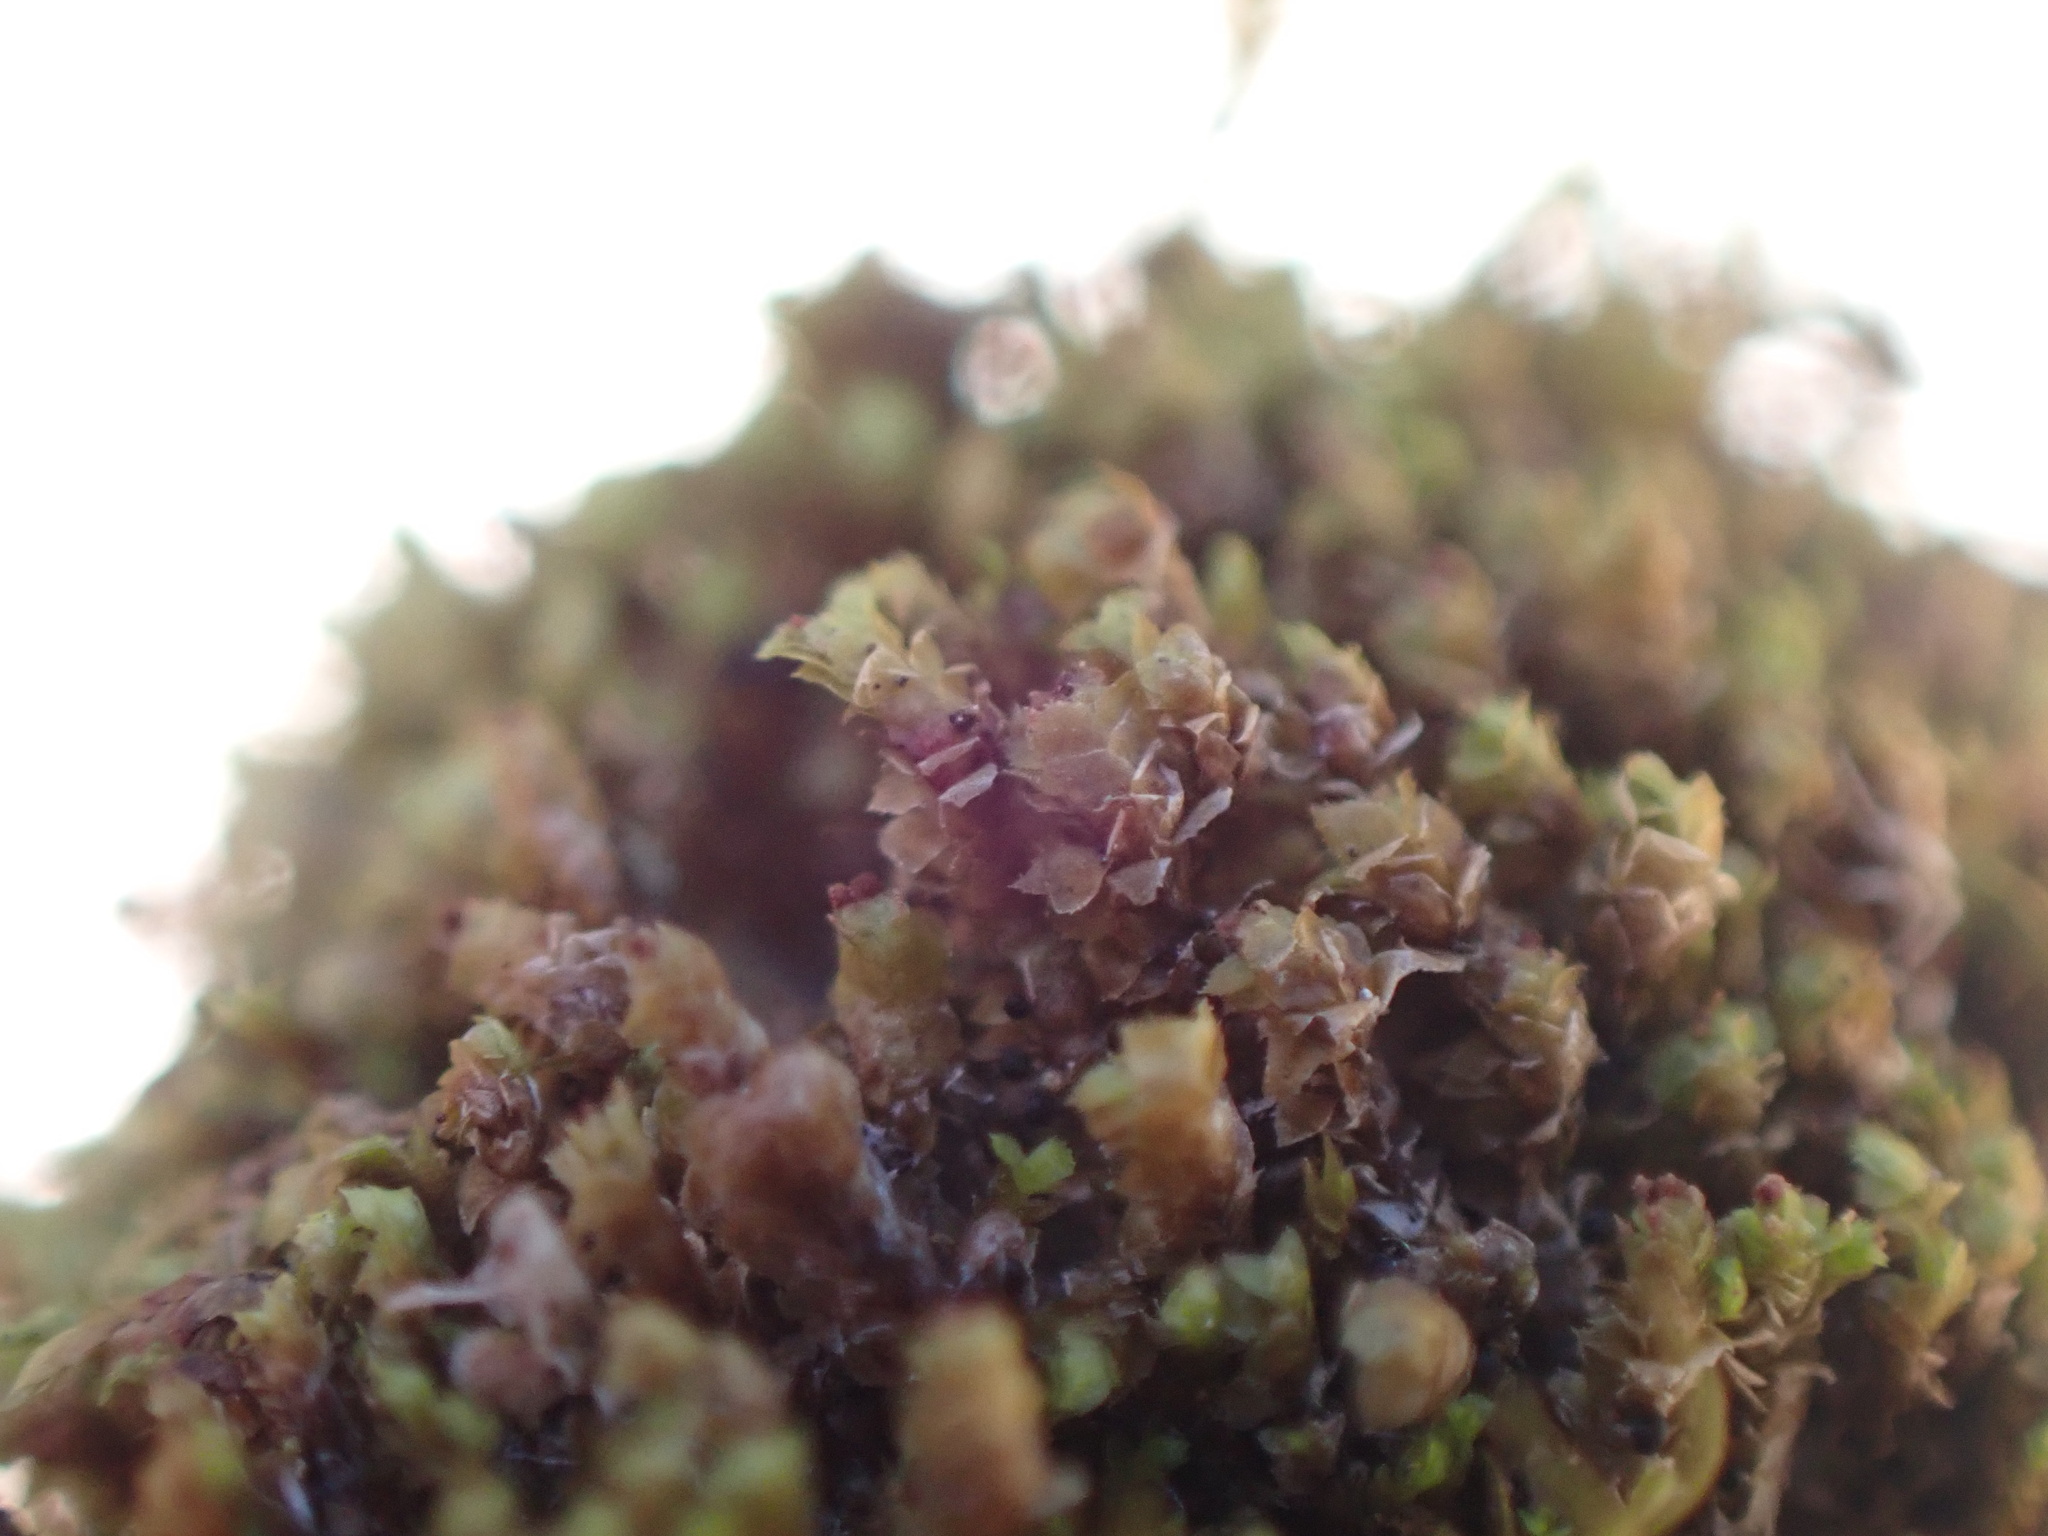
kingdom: Plantae
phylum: Marchantiophyta
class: Jungermanniopsida
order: Jungermanniales
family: Scapaniaceae
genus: Scapania
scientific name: Scapania umbrosa
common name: Shady earwort
